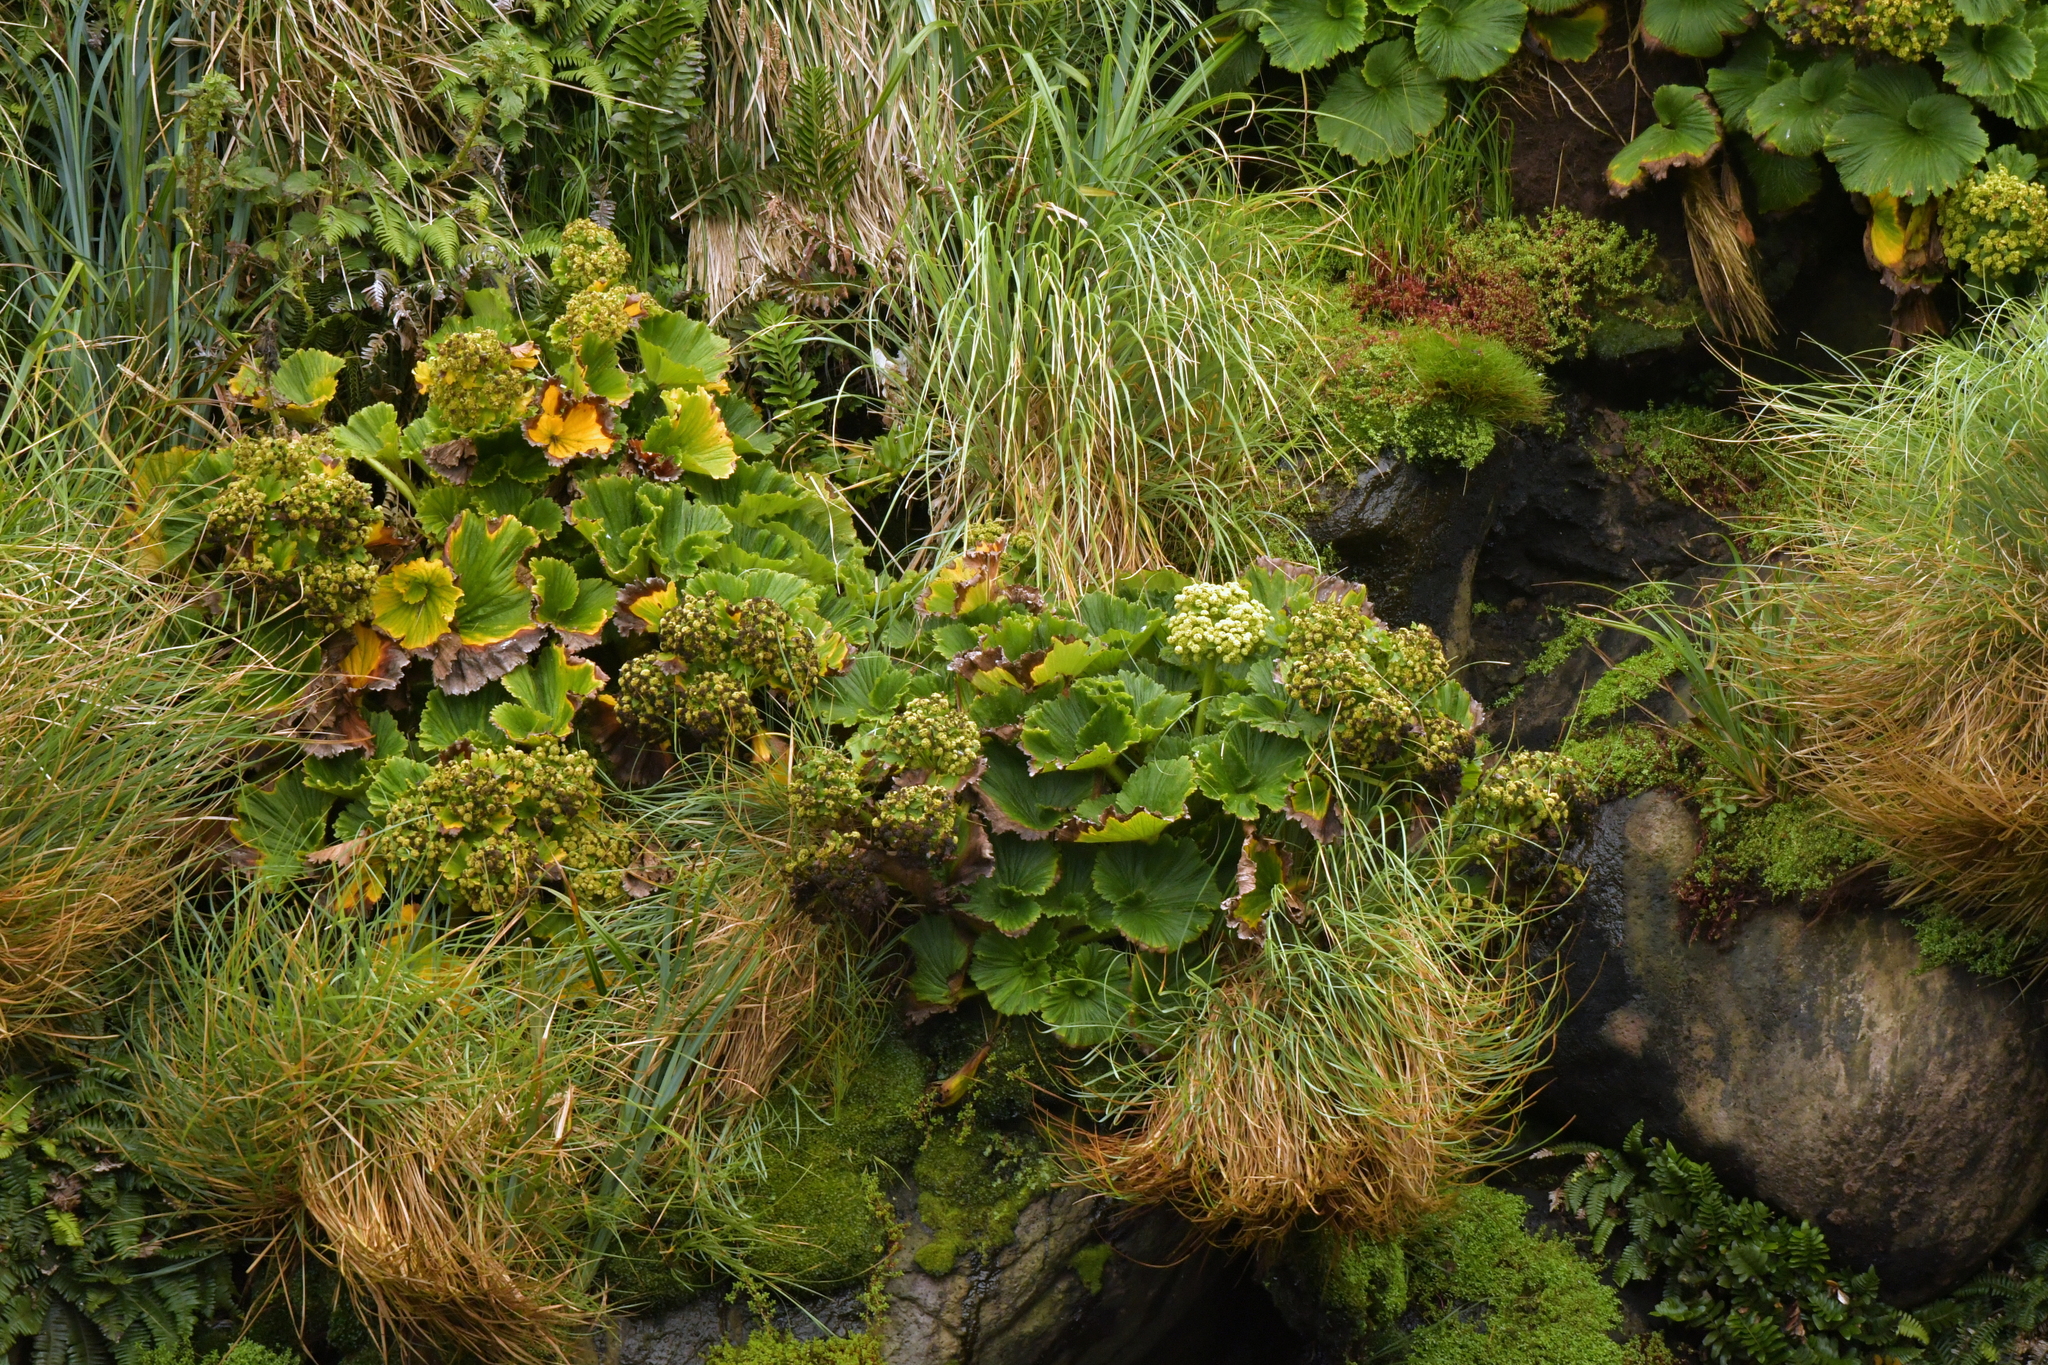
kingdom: Plantae
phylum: Tracheophyta
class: Magnoliopsida
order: Apiales
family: Apiaceae
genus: Azorella
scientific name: Azorella polaris
